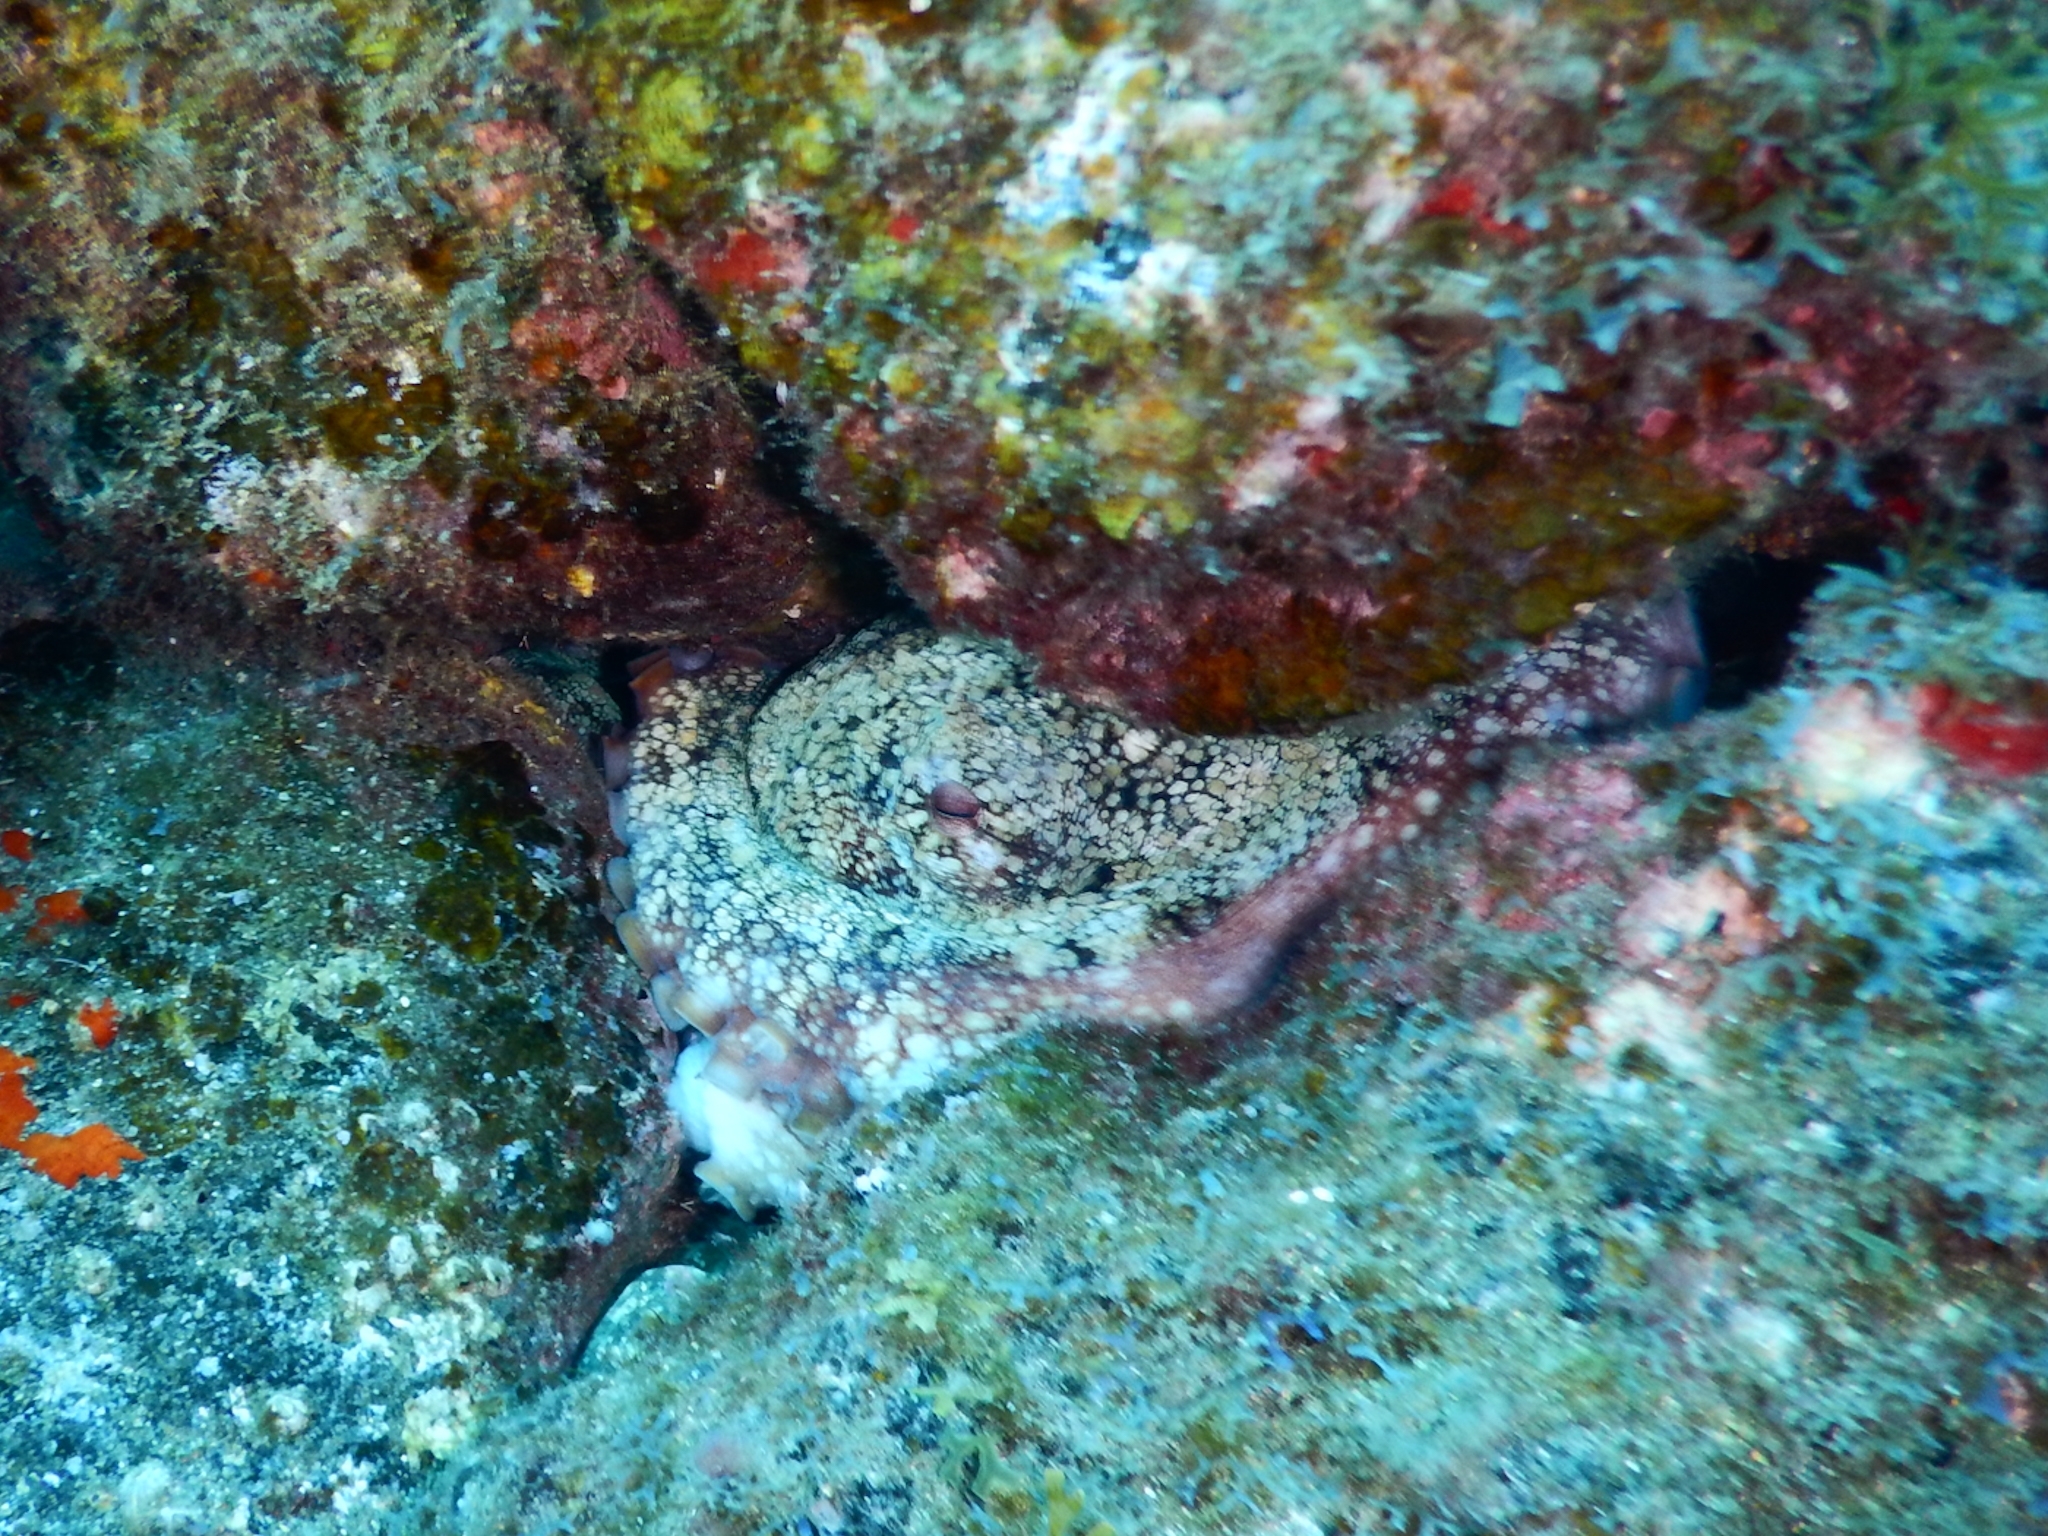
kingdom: Animalia
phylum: Mollusca
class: Cephalopoda
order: Octopoda
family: Octopodidae
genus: Octopus
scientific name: Octopus vulgaris
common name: Common octopus
